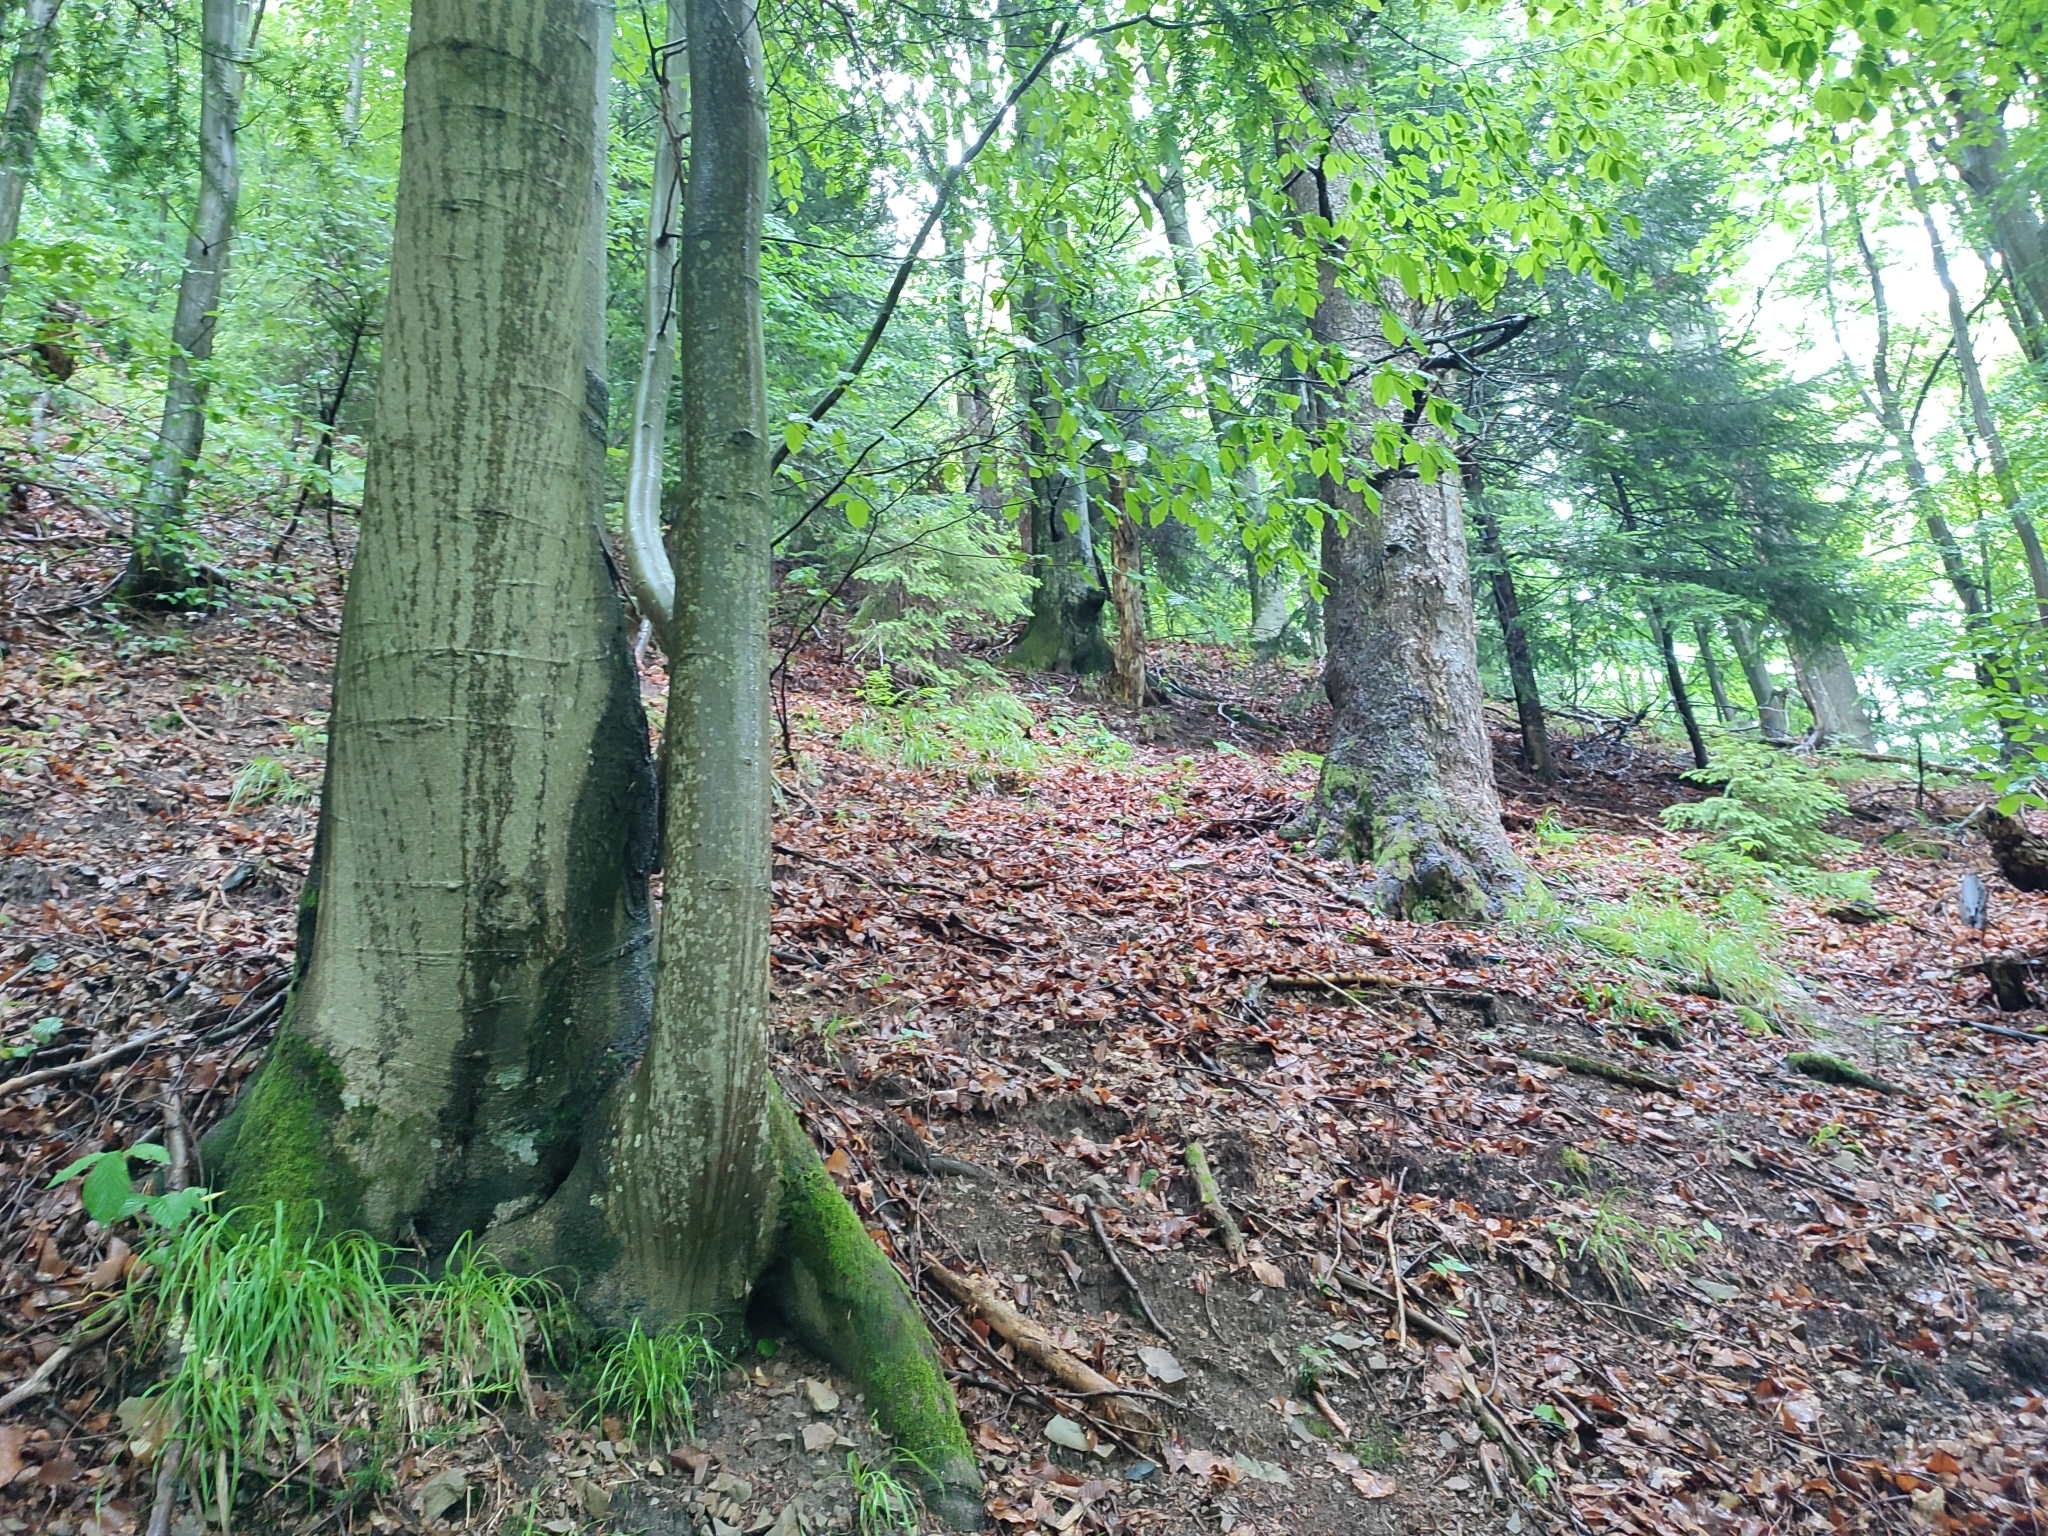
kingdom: Plantae
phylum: Tracheophyta
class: Magnoliopsida
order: Fagales
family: Fagaceae
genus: Fagus
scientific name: Fagus sylvatica
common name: Beech
